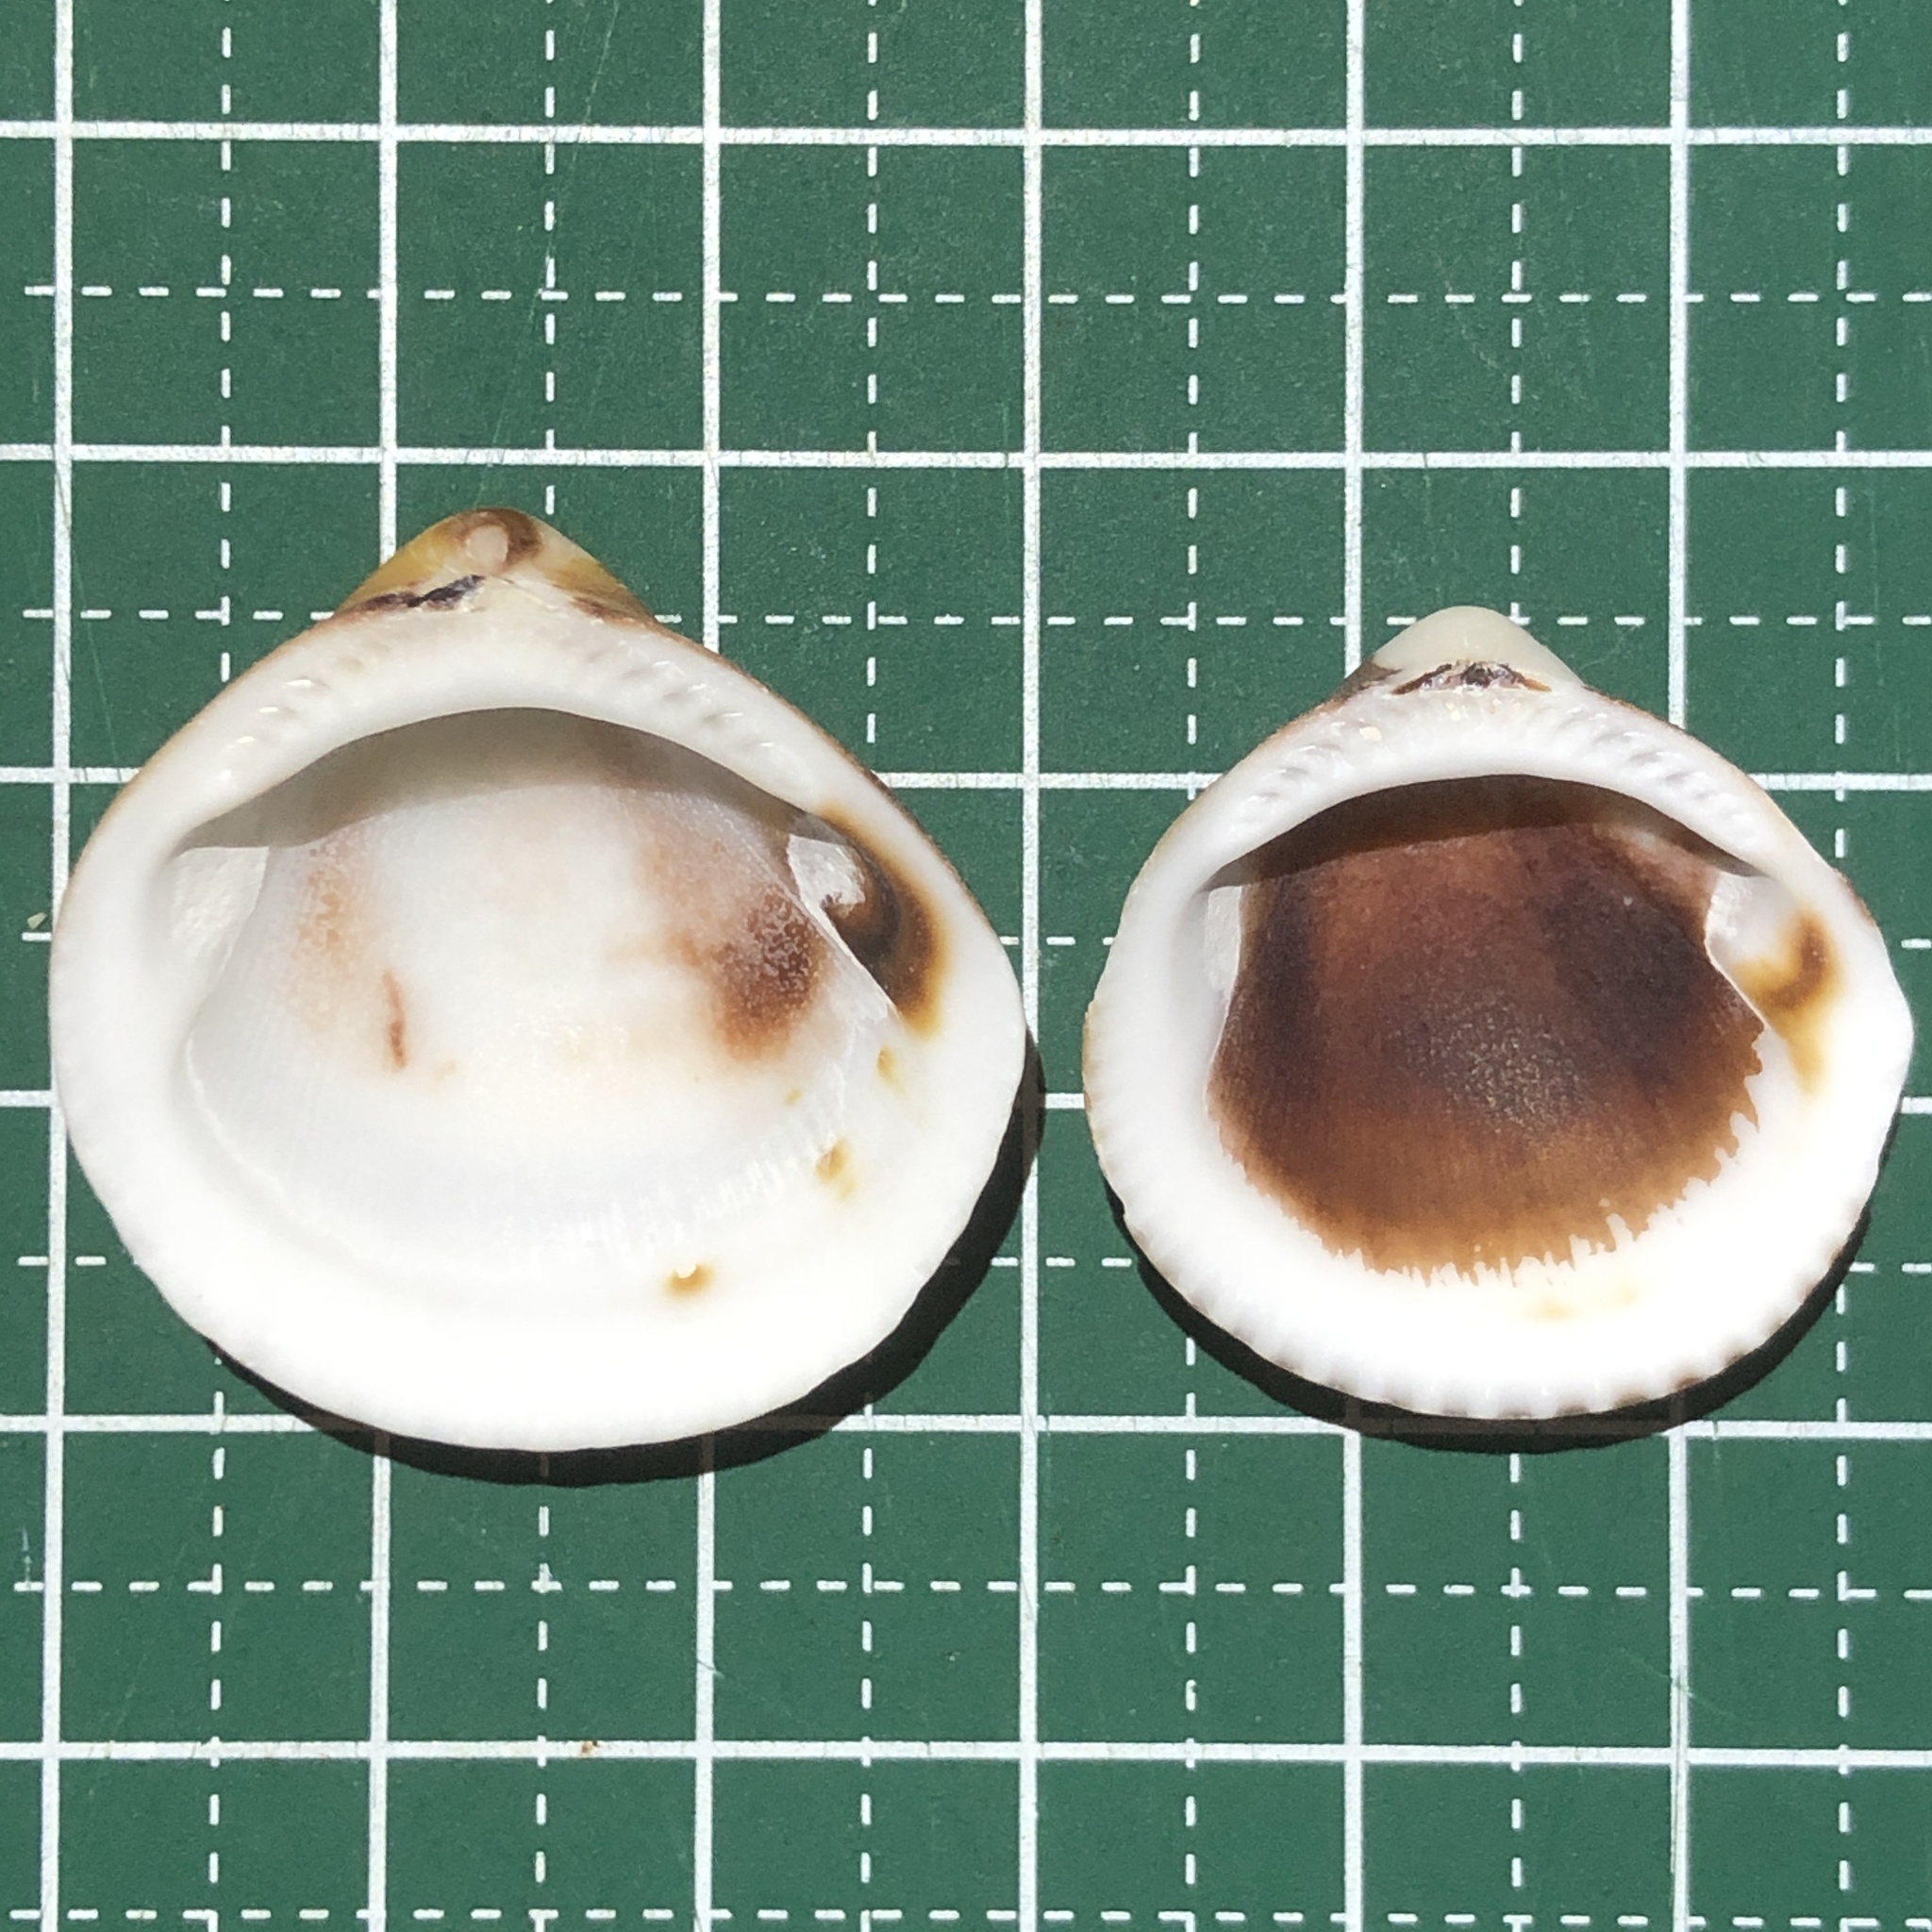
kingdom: Animalia
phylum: Mollusca
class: Bivalvia
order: Arcida
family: Glycymerididae
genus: Glycymeris
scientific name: Glycymeris reevei
